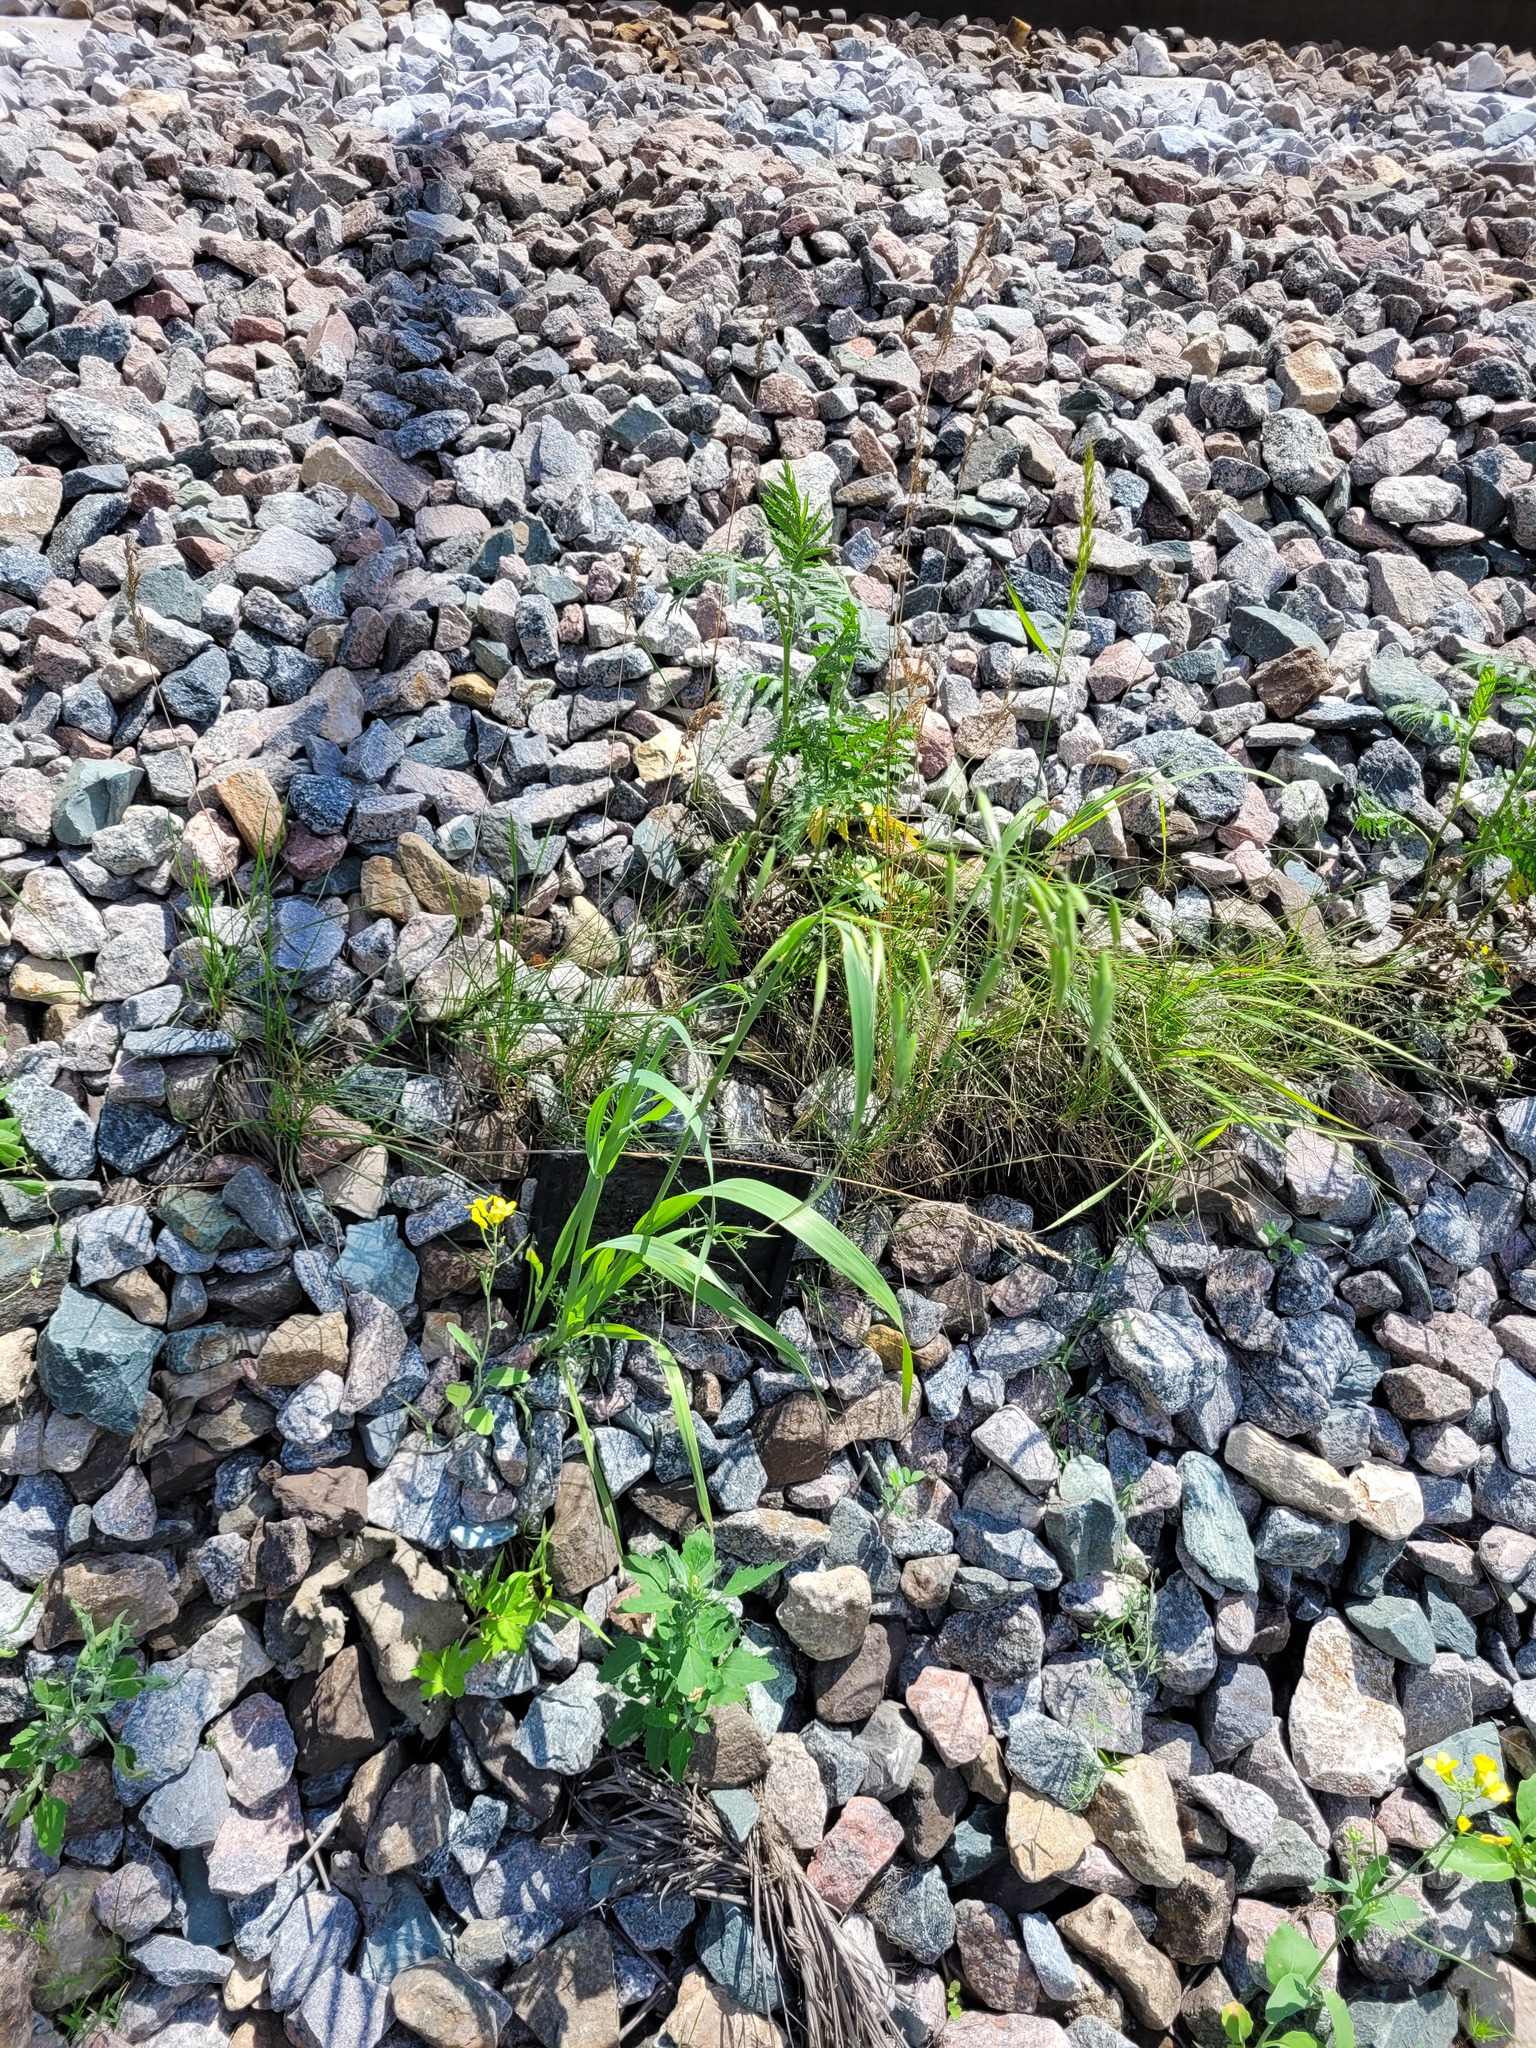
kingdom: Plantae
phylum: Tracheophyta
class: Liliopsida
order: Poales
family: Poaceae
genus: Avena
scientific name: Avena fatua
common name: Wild oat
